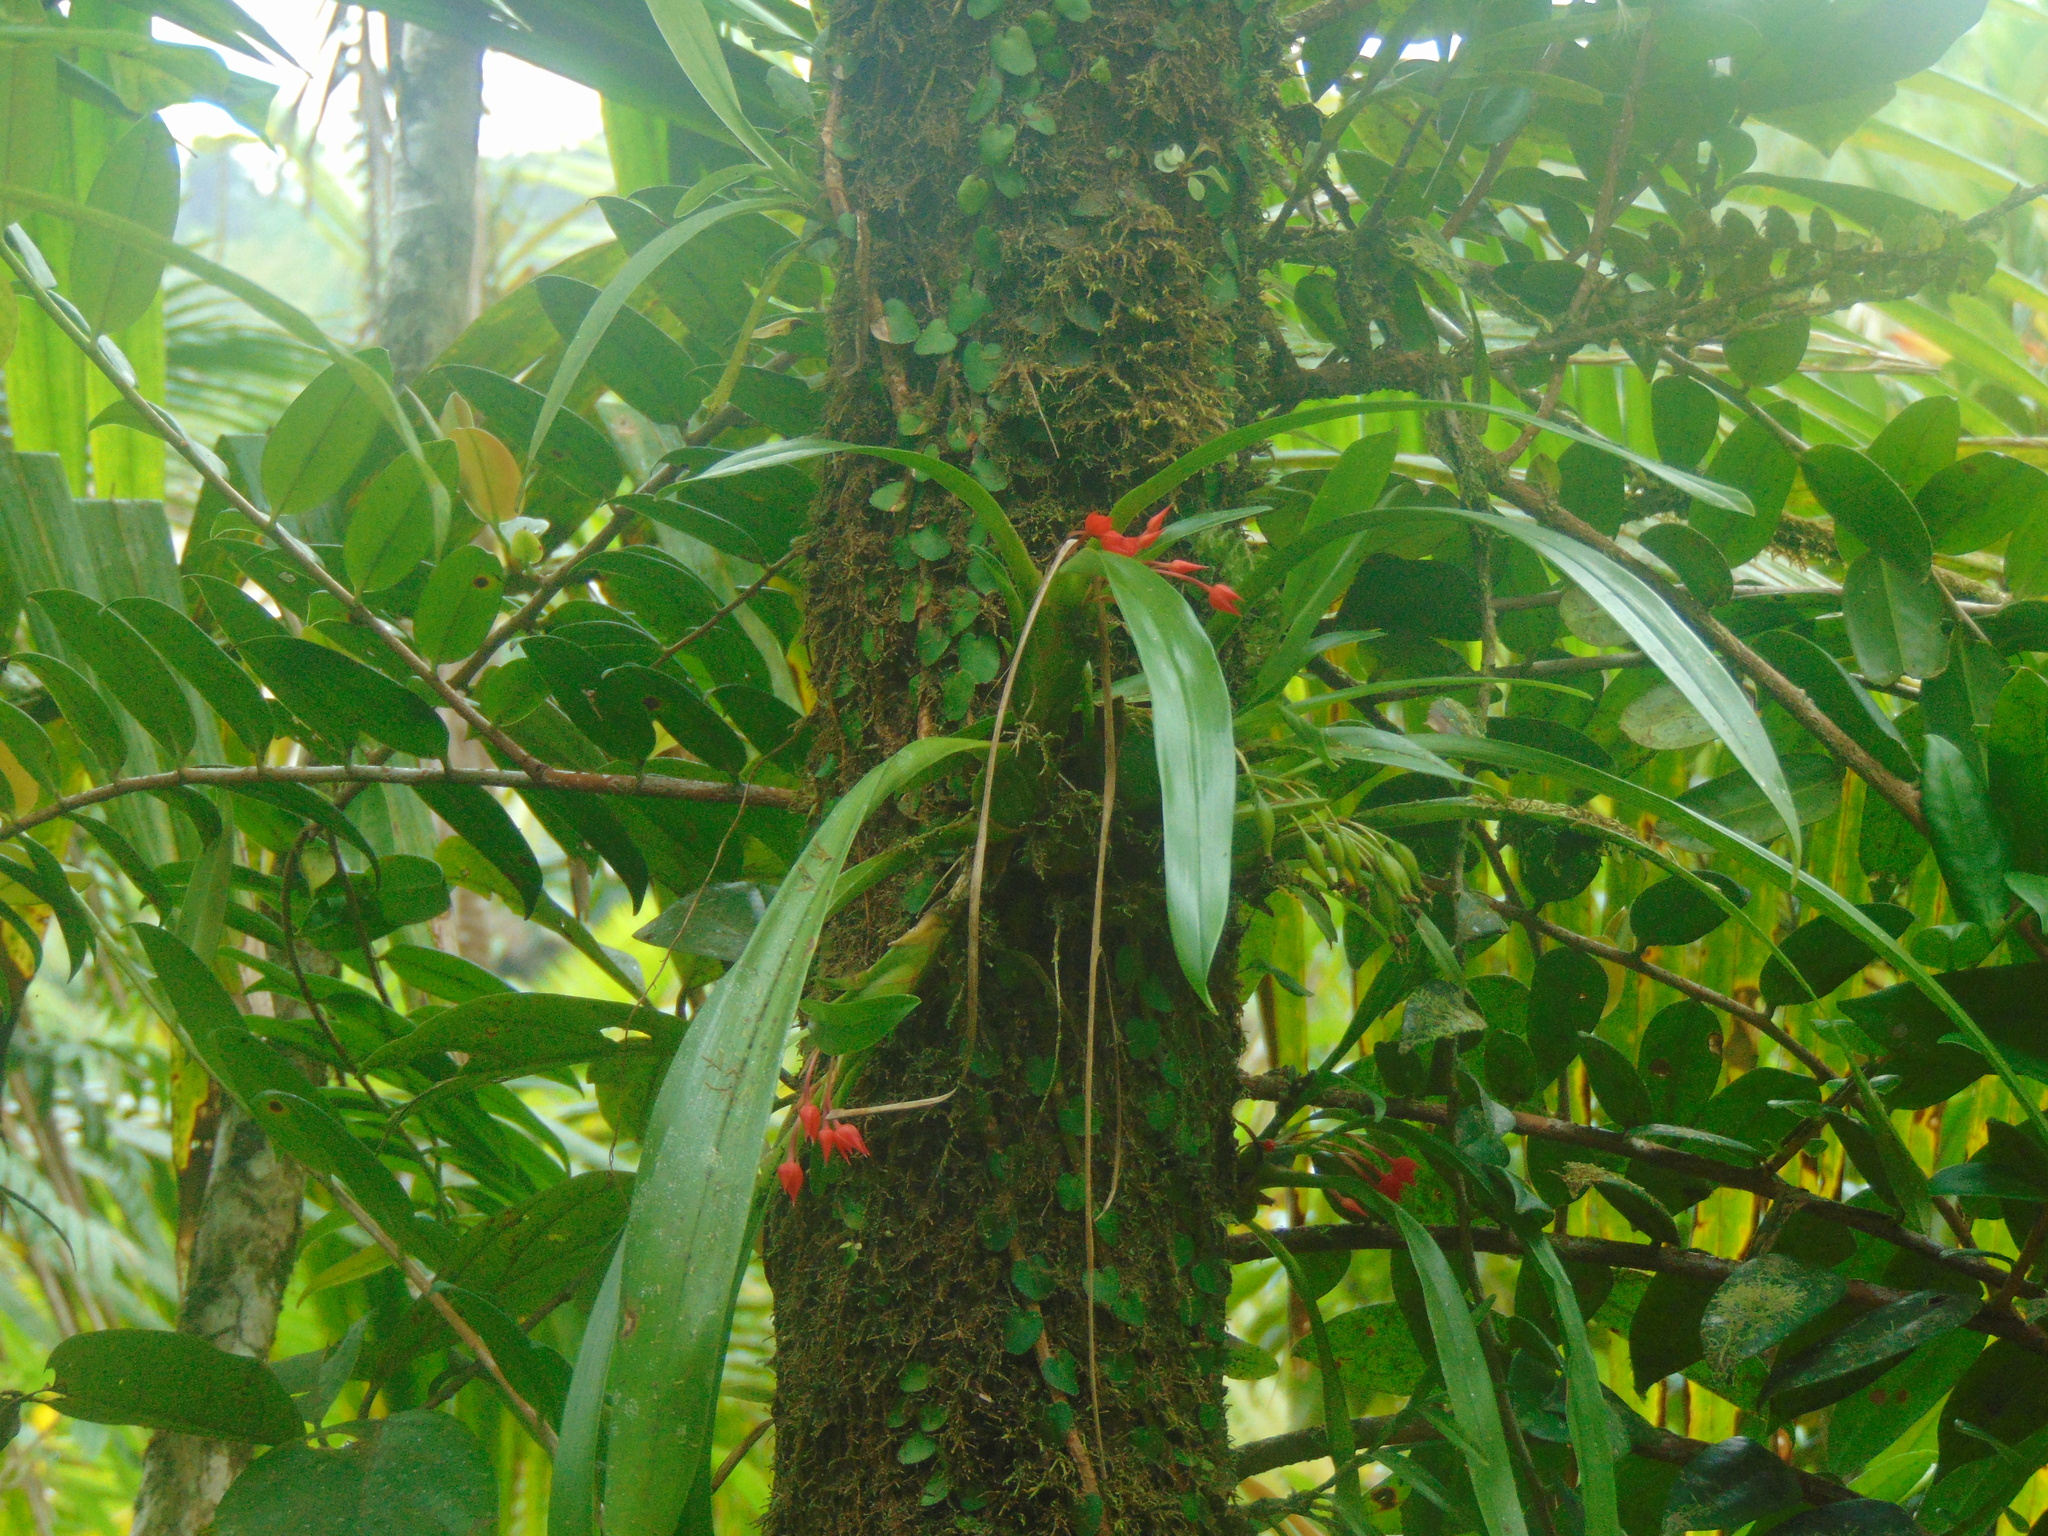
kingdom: Plantae
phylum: Tracheophyta
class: Liliopsida
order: Asparagales
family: Orchidaceae
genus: Maxillaria
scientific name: Maxillaria coccinea
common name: Scarlet flame orchid
